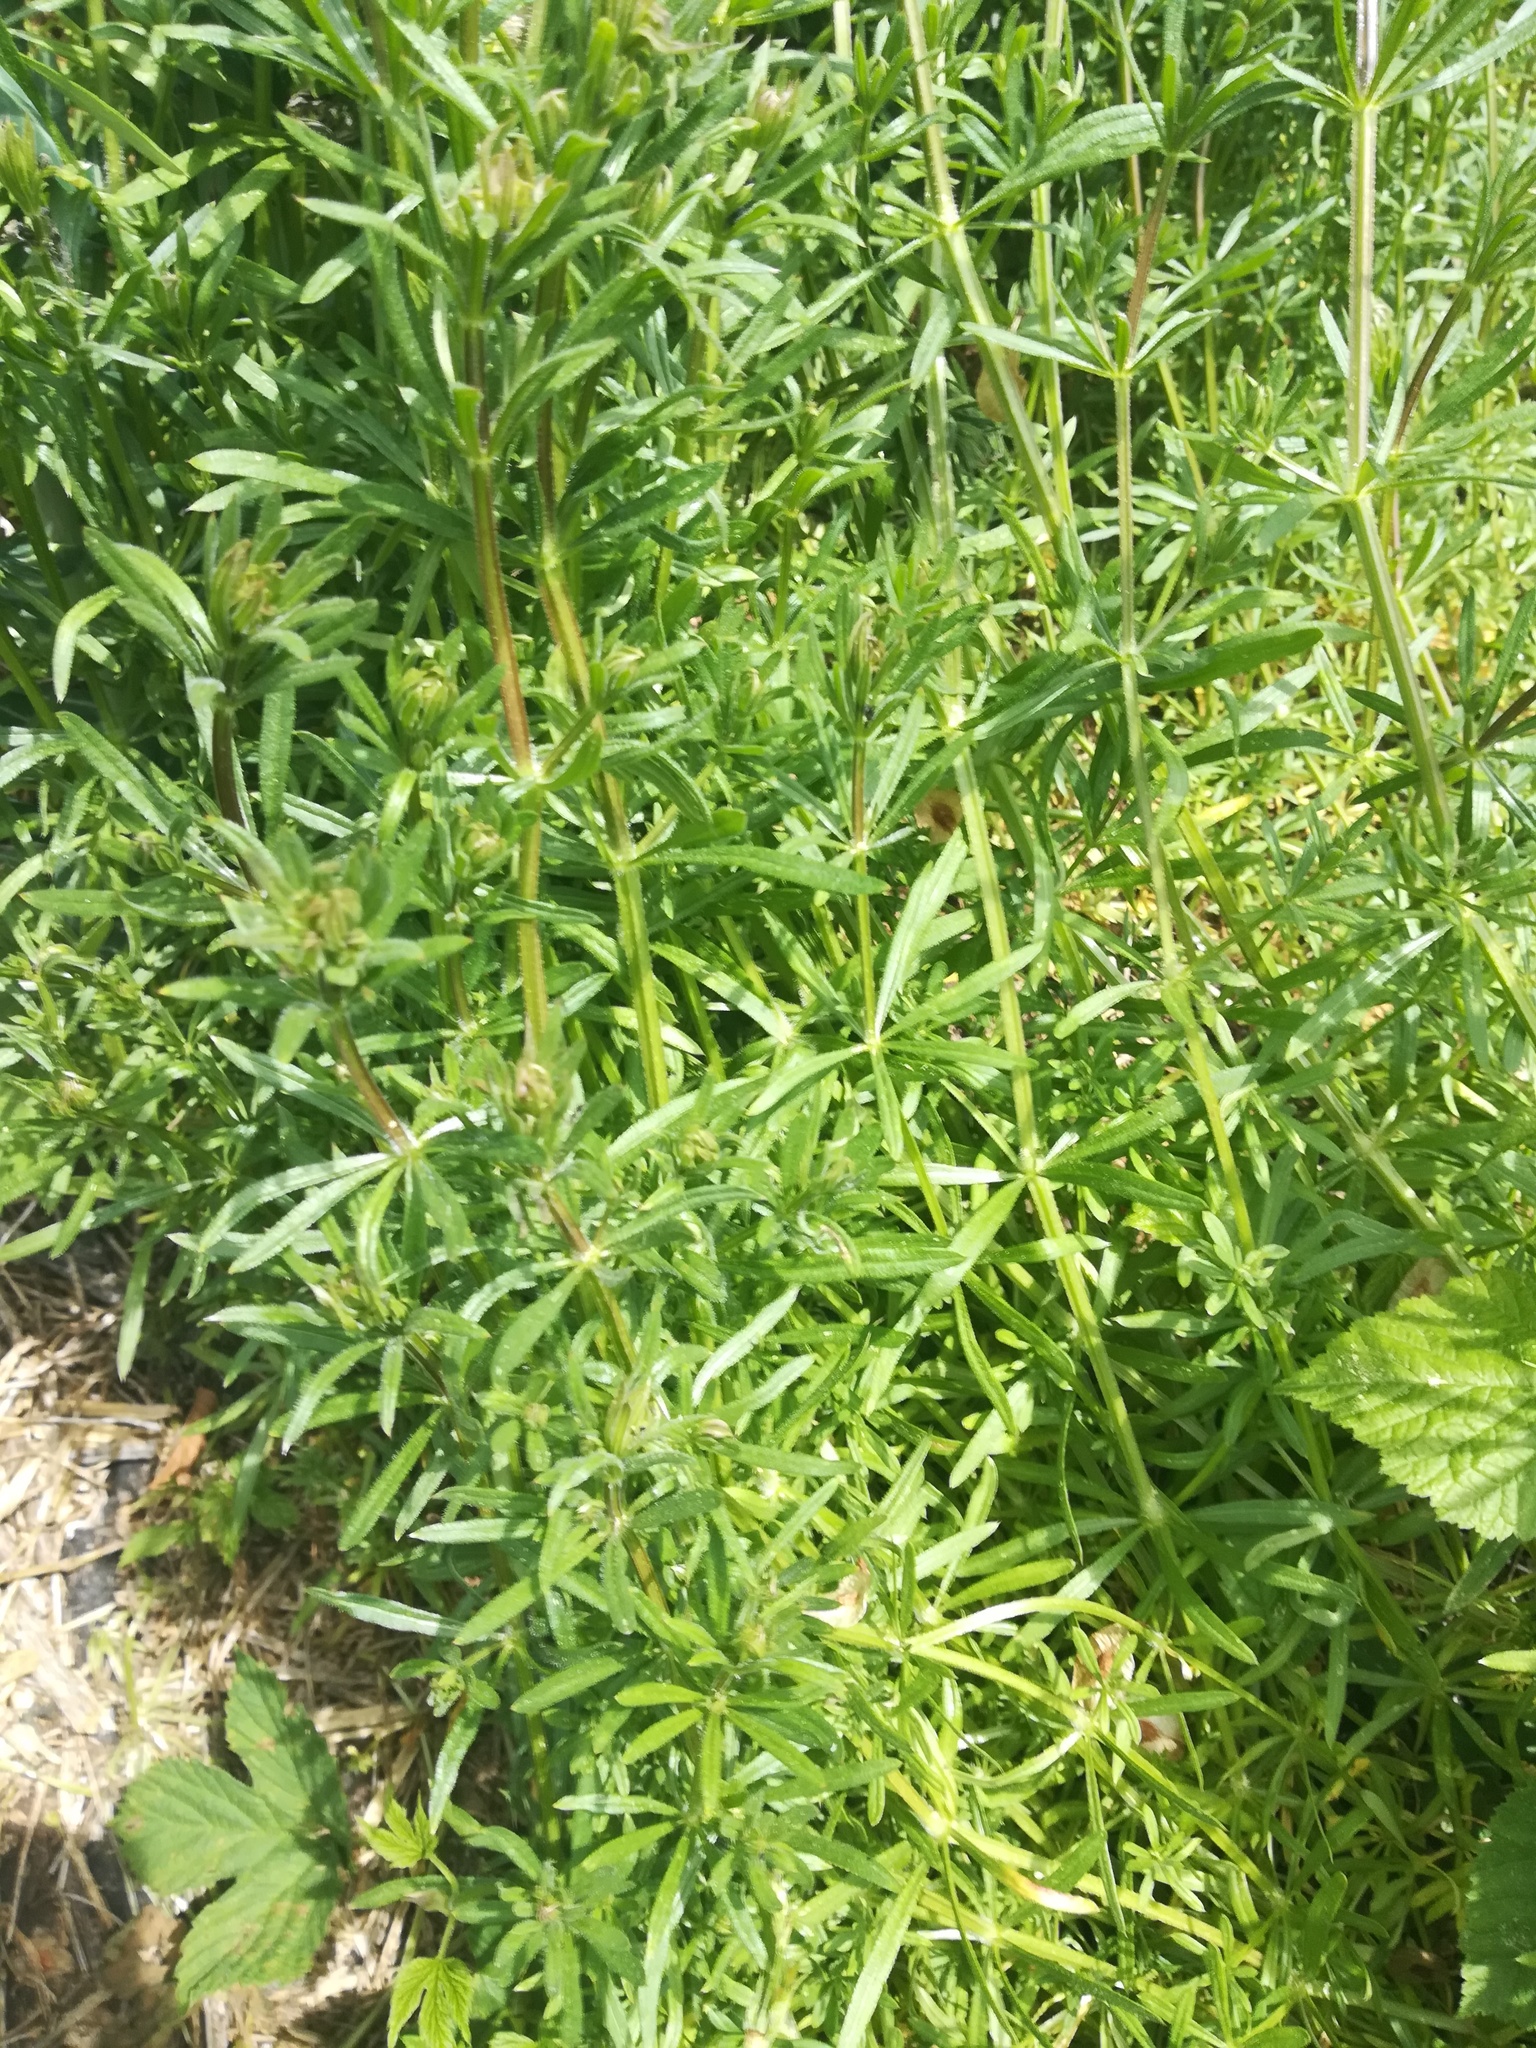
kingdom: Plantae
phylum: Tracheophyta
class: Magnoliopsida
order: Gentianales
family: Rubiaceae
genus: Galium
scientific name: Galium aparine
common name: Cleavers
